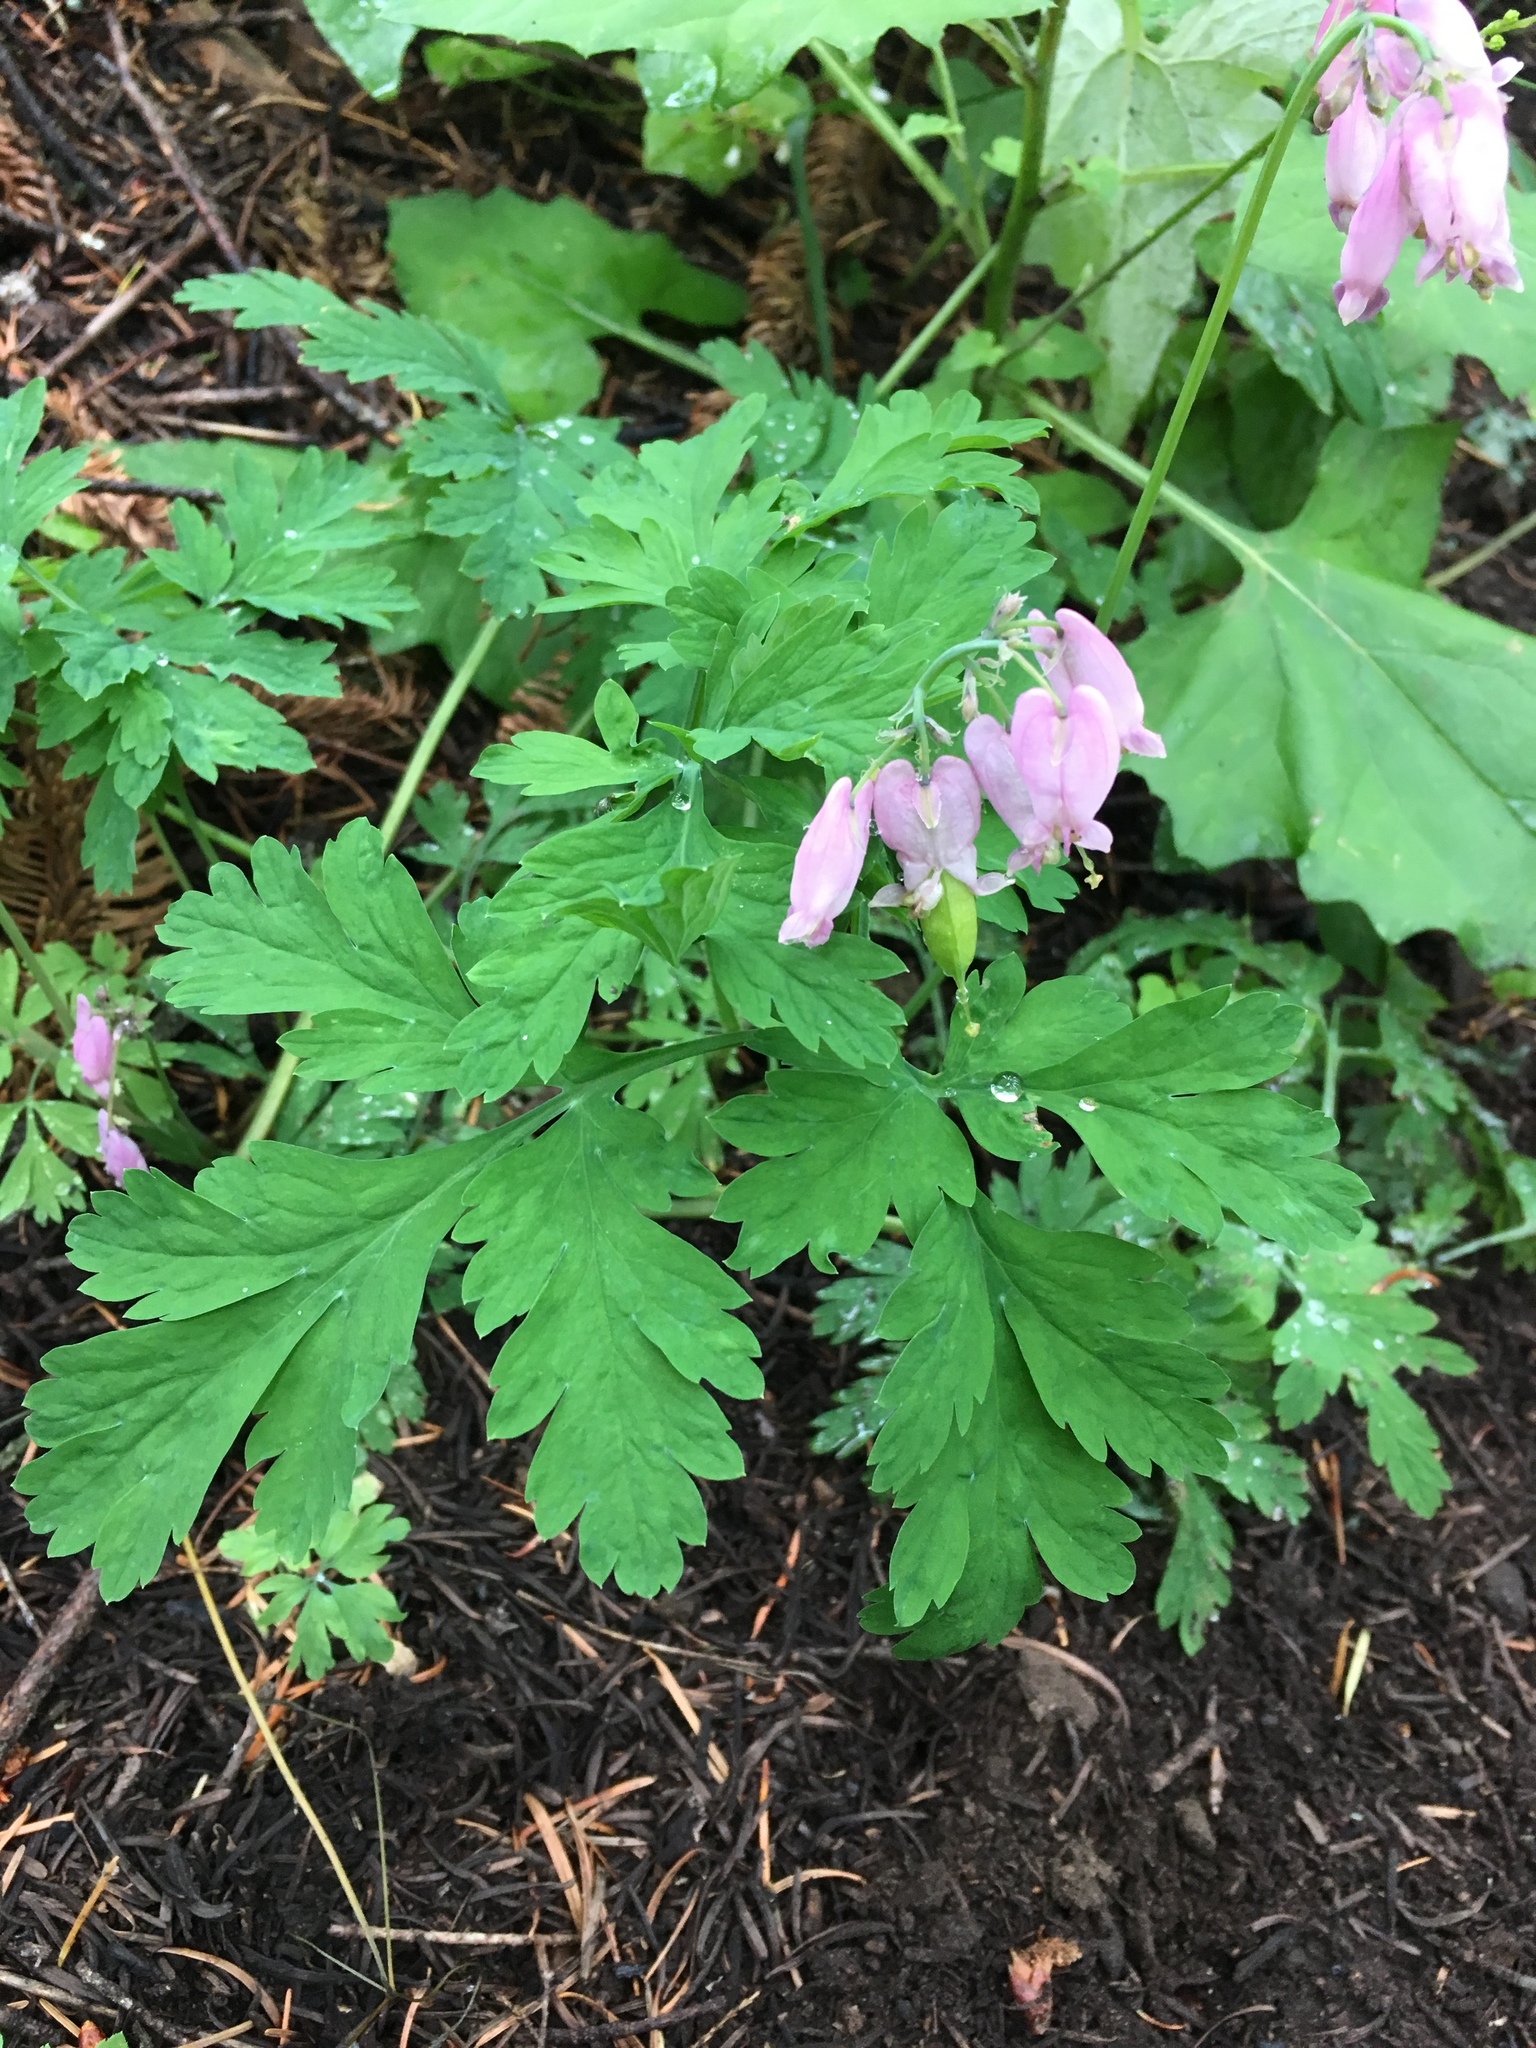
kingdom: Plantae
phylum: Tracheophyta
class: Magnoliopsida
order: Ranunculales
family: Papaveraceae
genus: Dicentra
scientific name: Dicentra formosa
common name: Bleeding-heart
